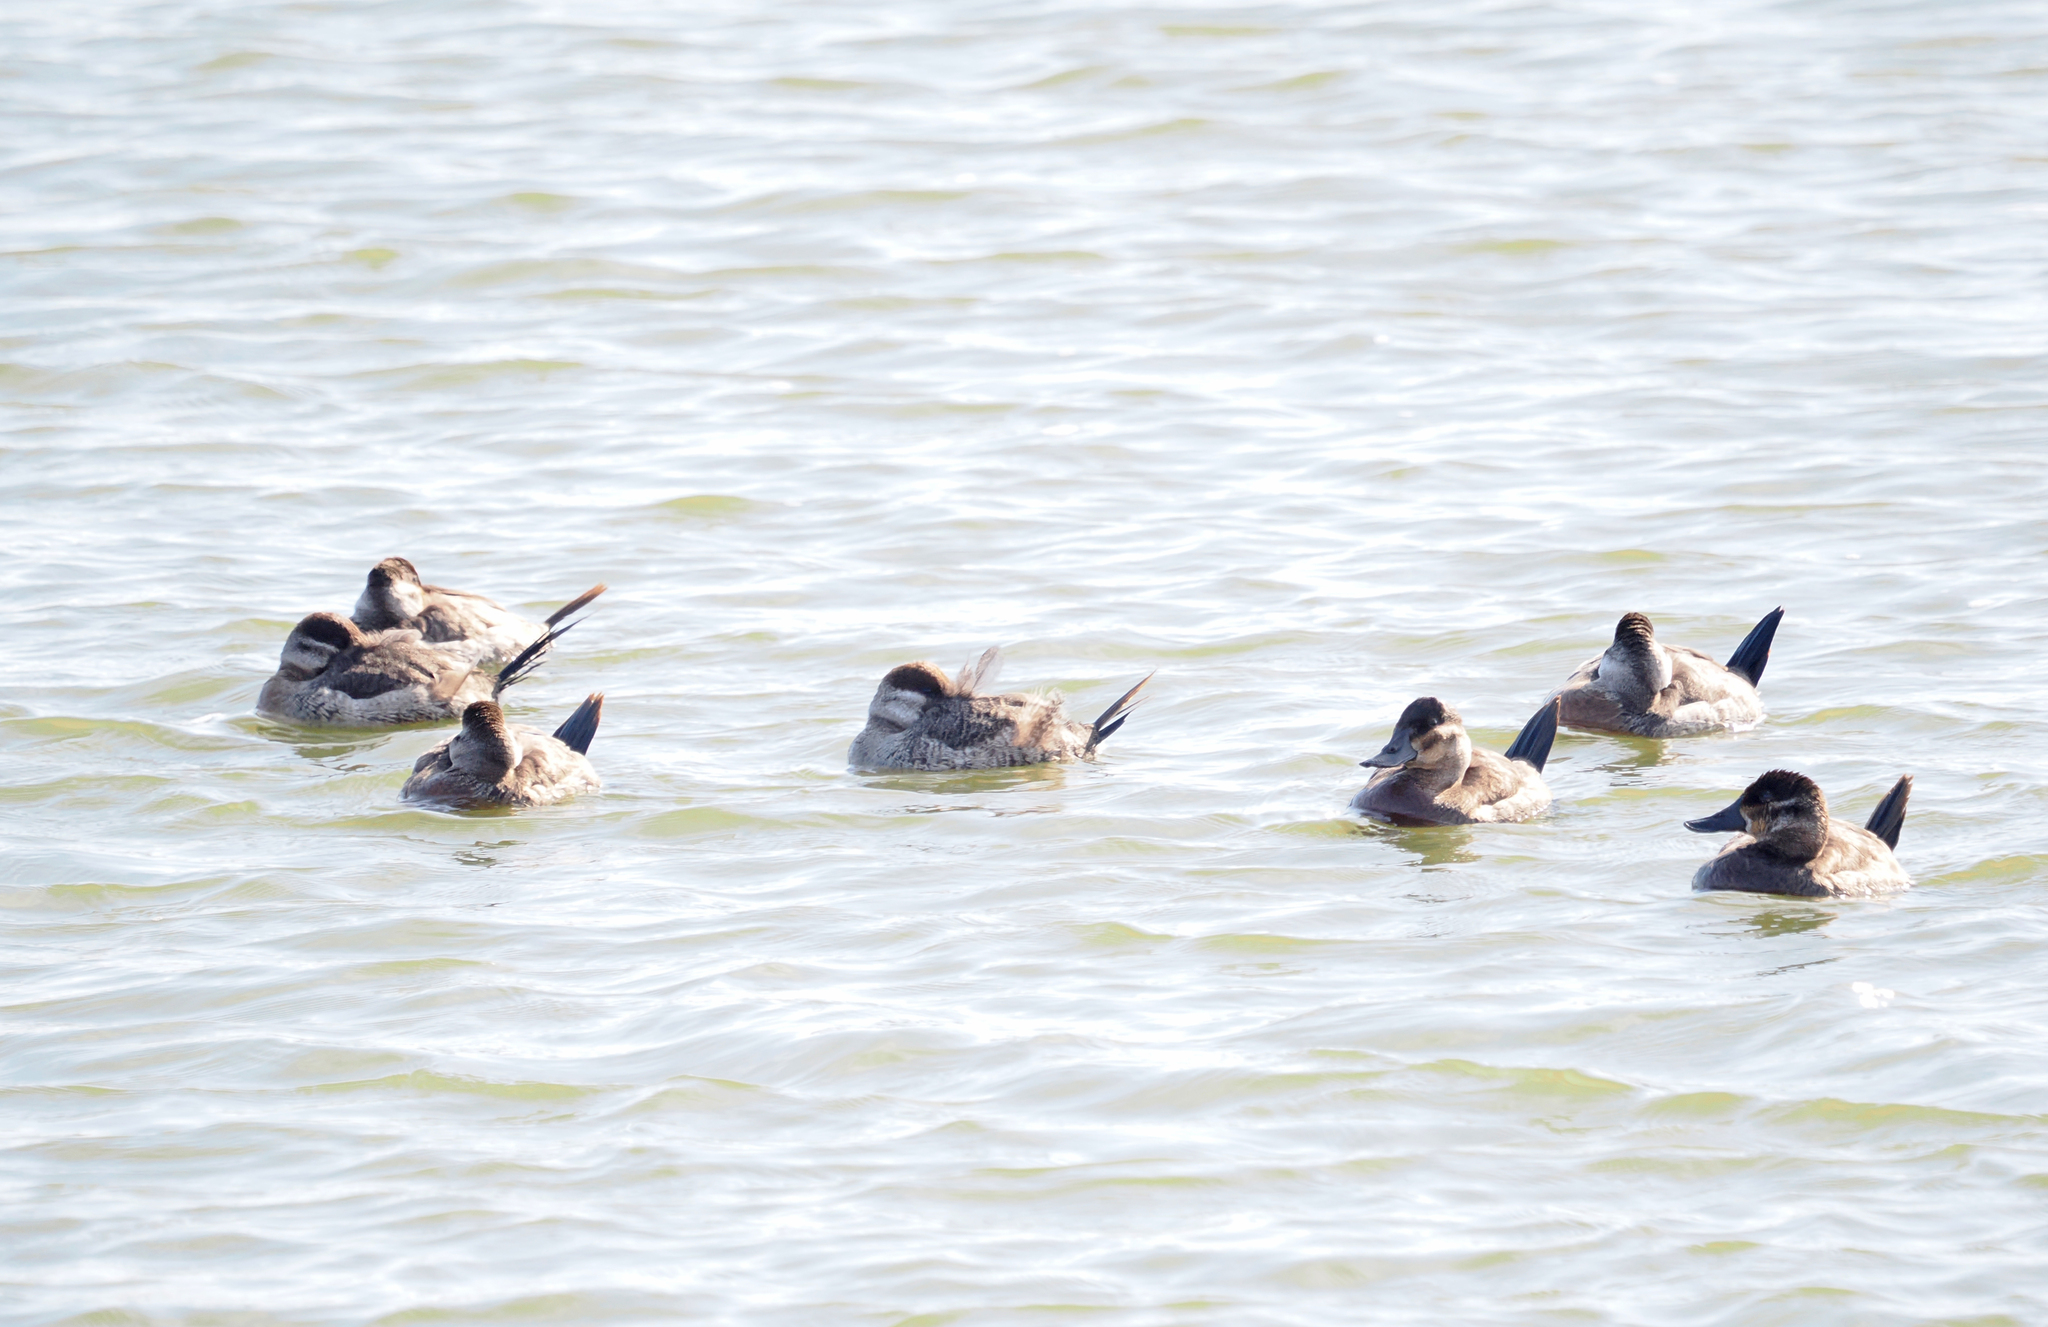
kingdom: Animalia
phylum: Chordata
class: Aves
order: Anseriformes
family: Anatidae
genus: Oxyura
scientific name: Oxyura jamaicensis
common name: Ruddy duck
